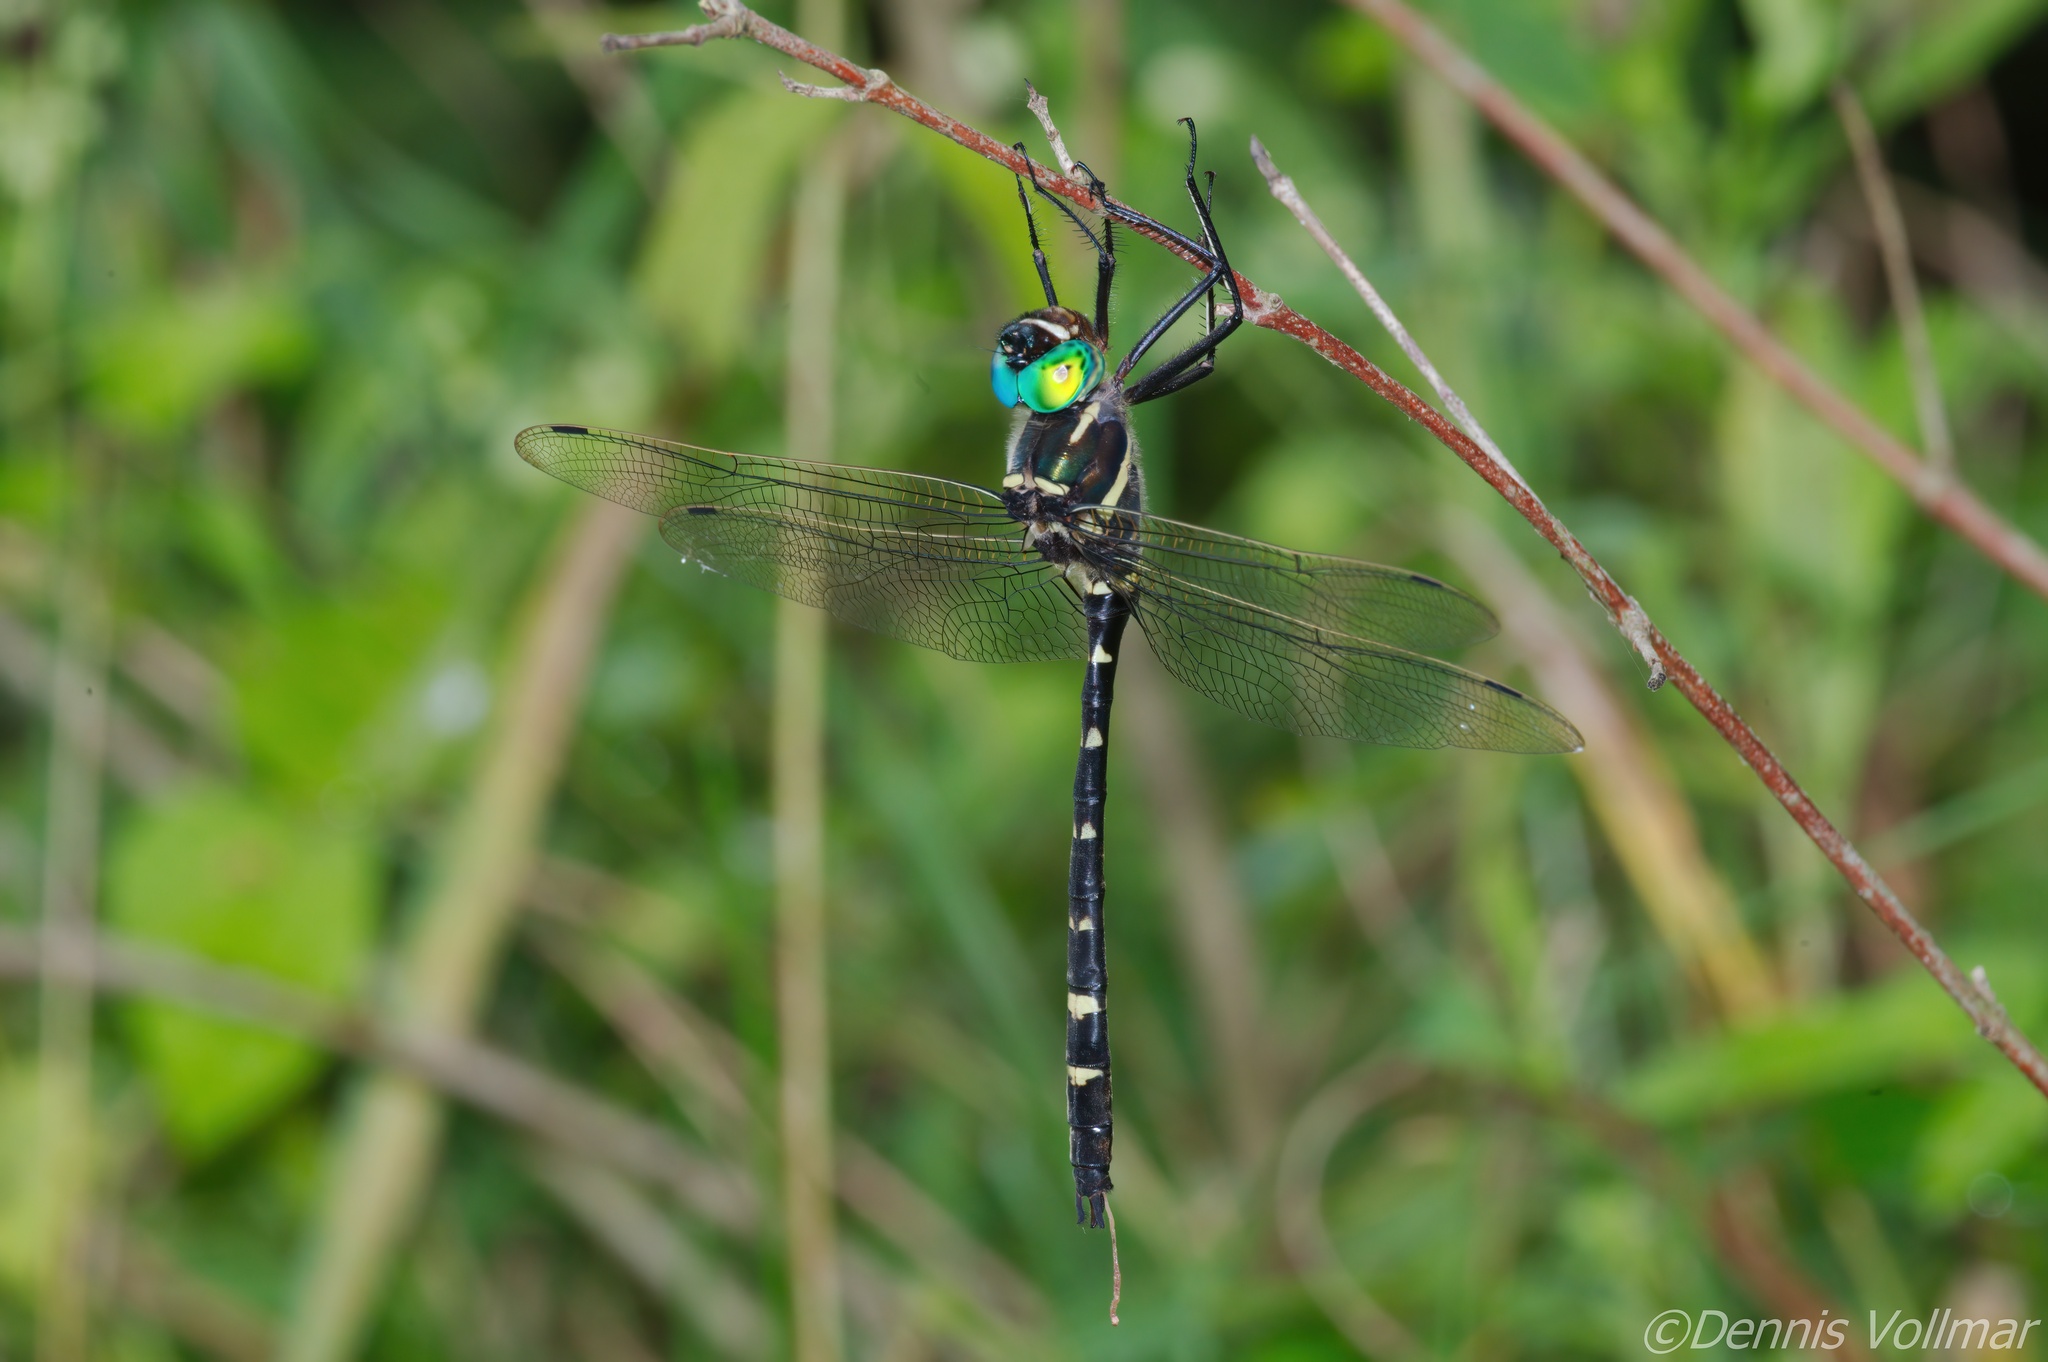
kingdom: Animalia
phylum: Arthropoda
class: Insecta
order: Odonata
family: Macromiidae
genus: Macromia
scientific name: Macromia
